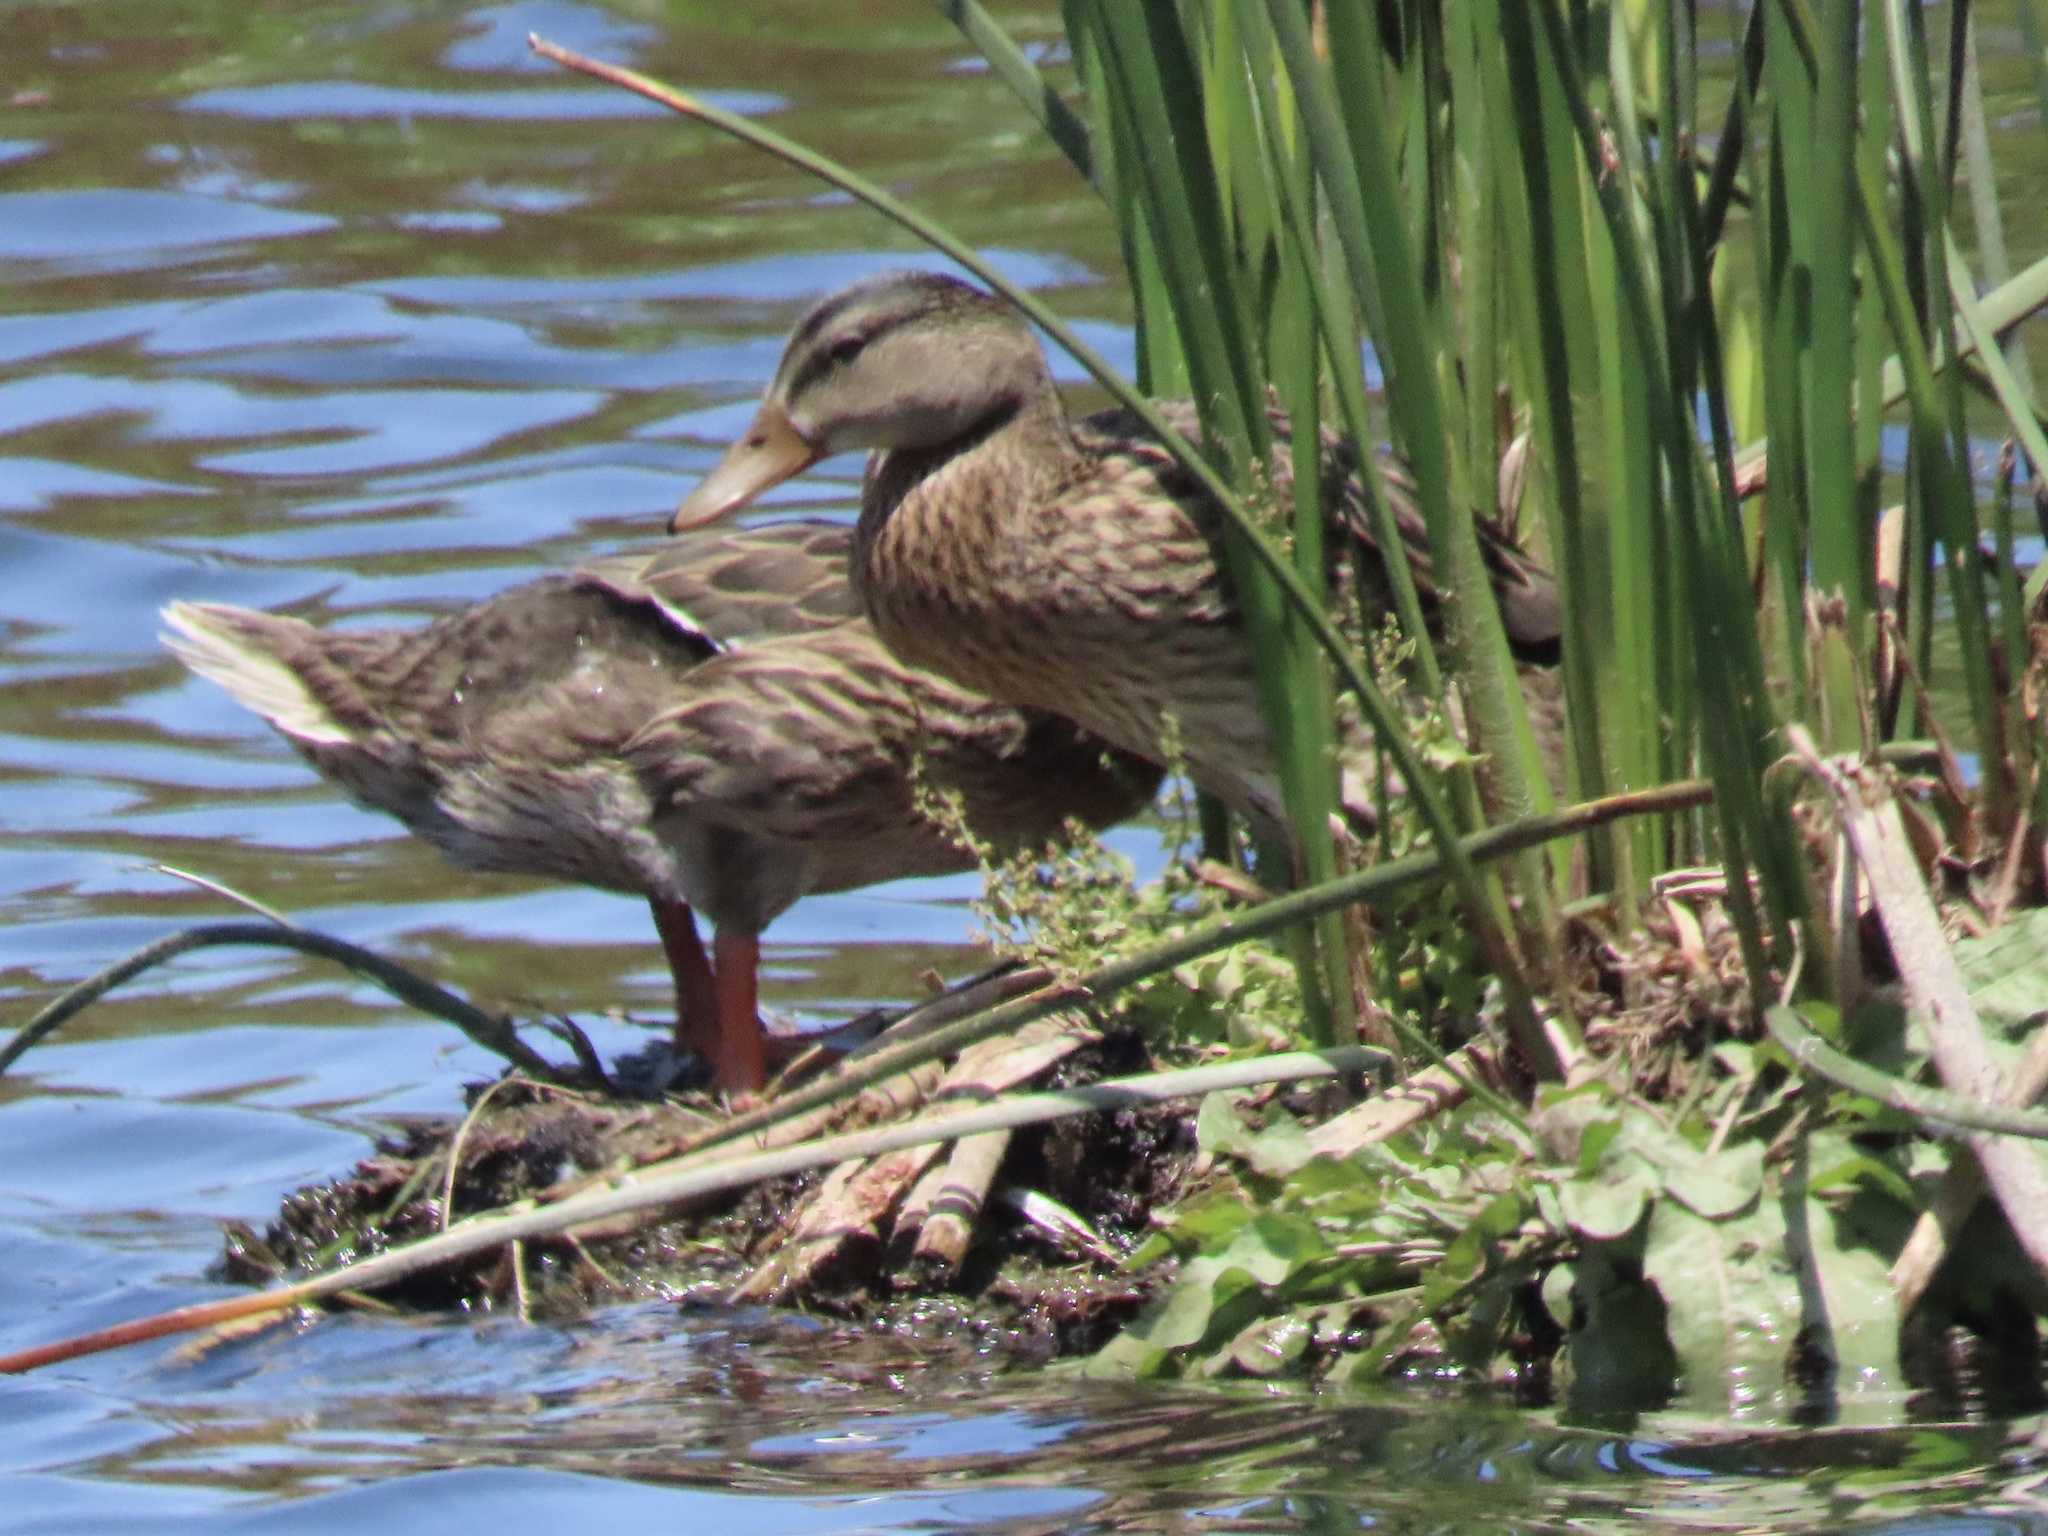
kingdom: Animalia
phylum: Chordata
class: Aves
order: Anseriformes
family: Anatidae
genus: Anas
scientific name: Anas platyrhynchos
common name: Mallard
